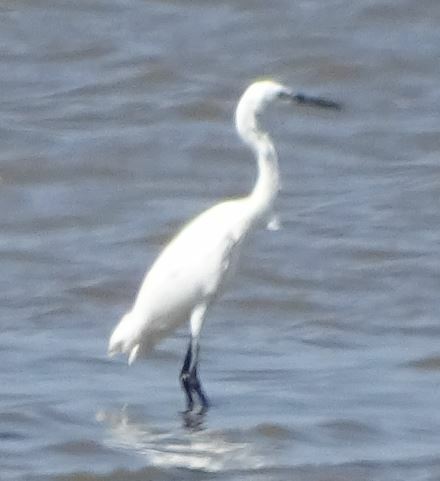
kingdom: Animalia
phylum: Chordata
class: Aves
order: Pelecaniformes
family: Ardeidae
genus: Egretta
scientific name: Egretta garzetta
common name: Little egret
